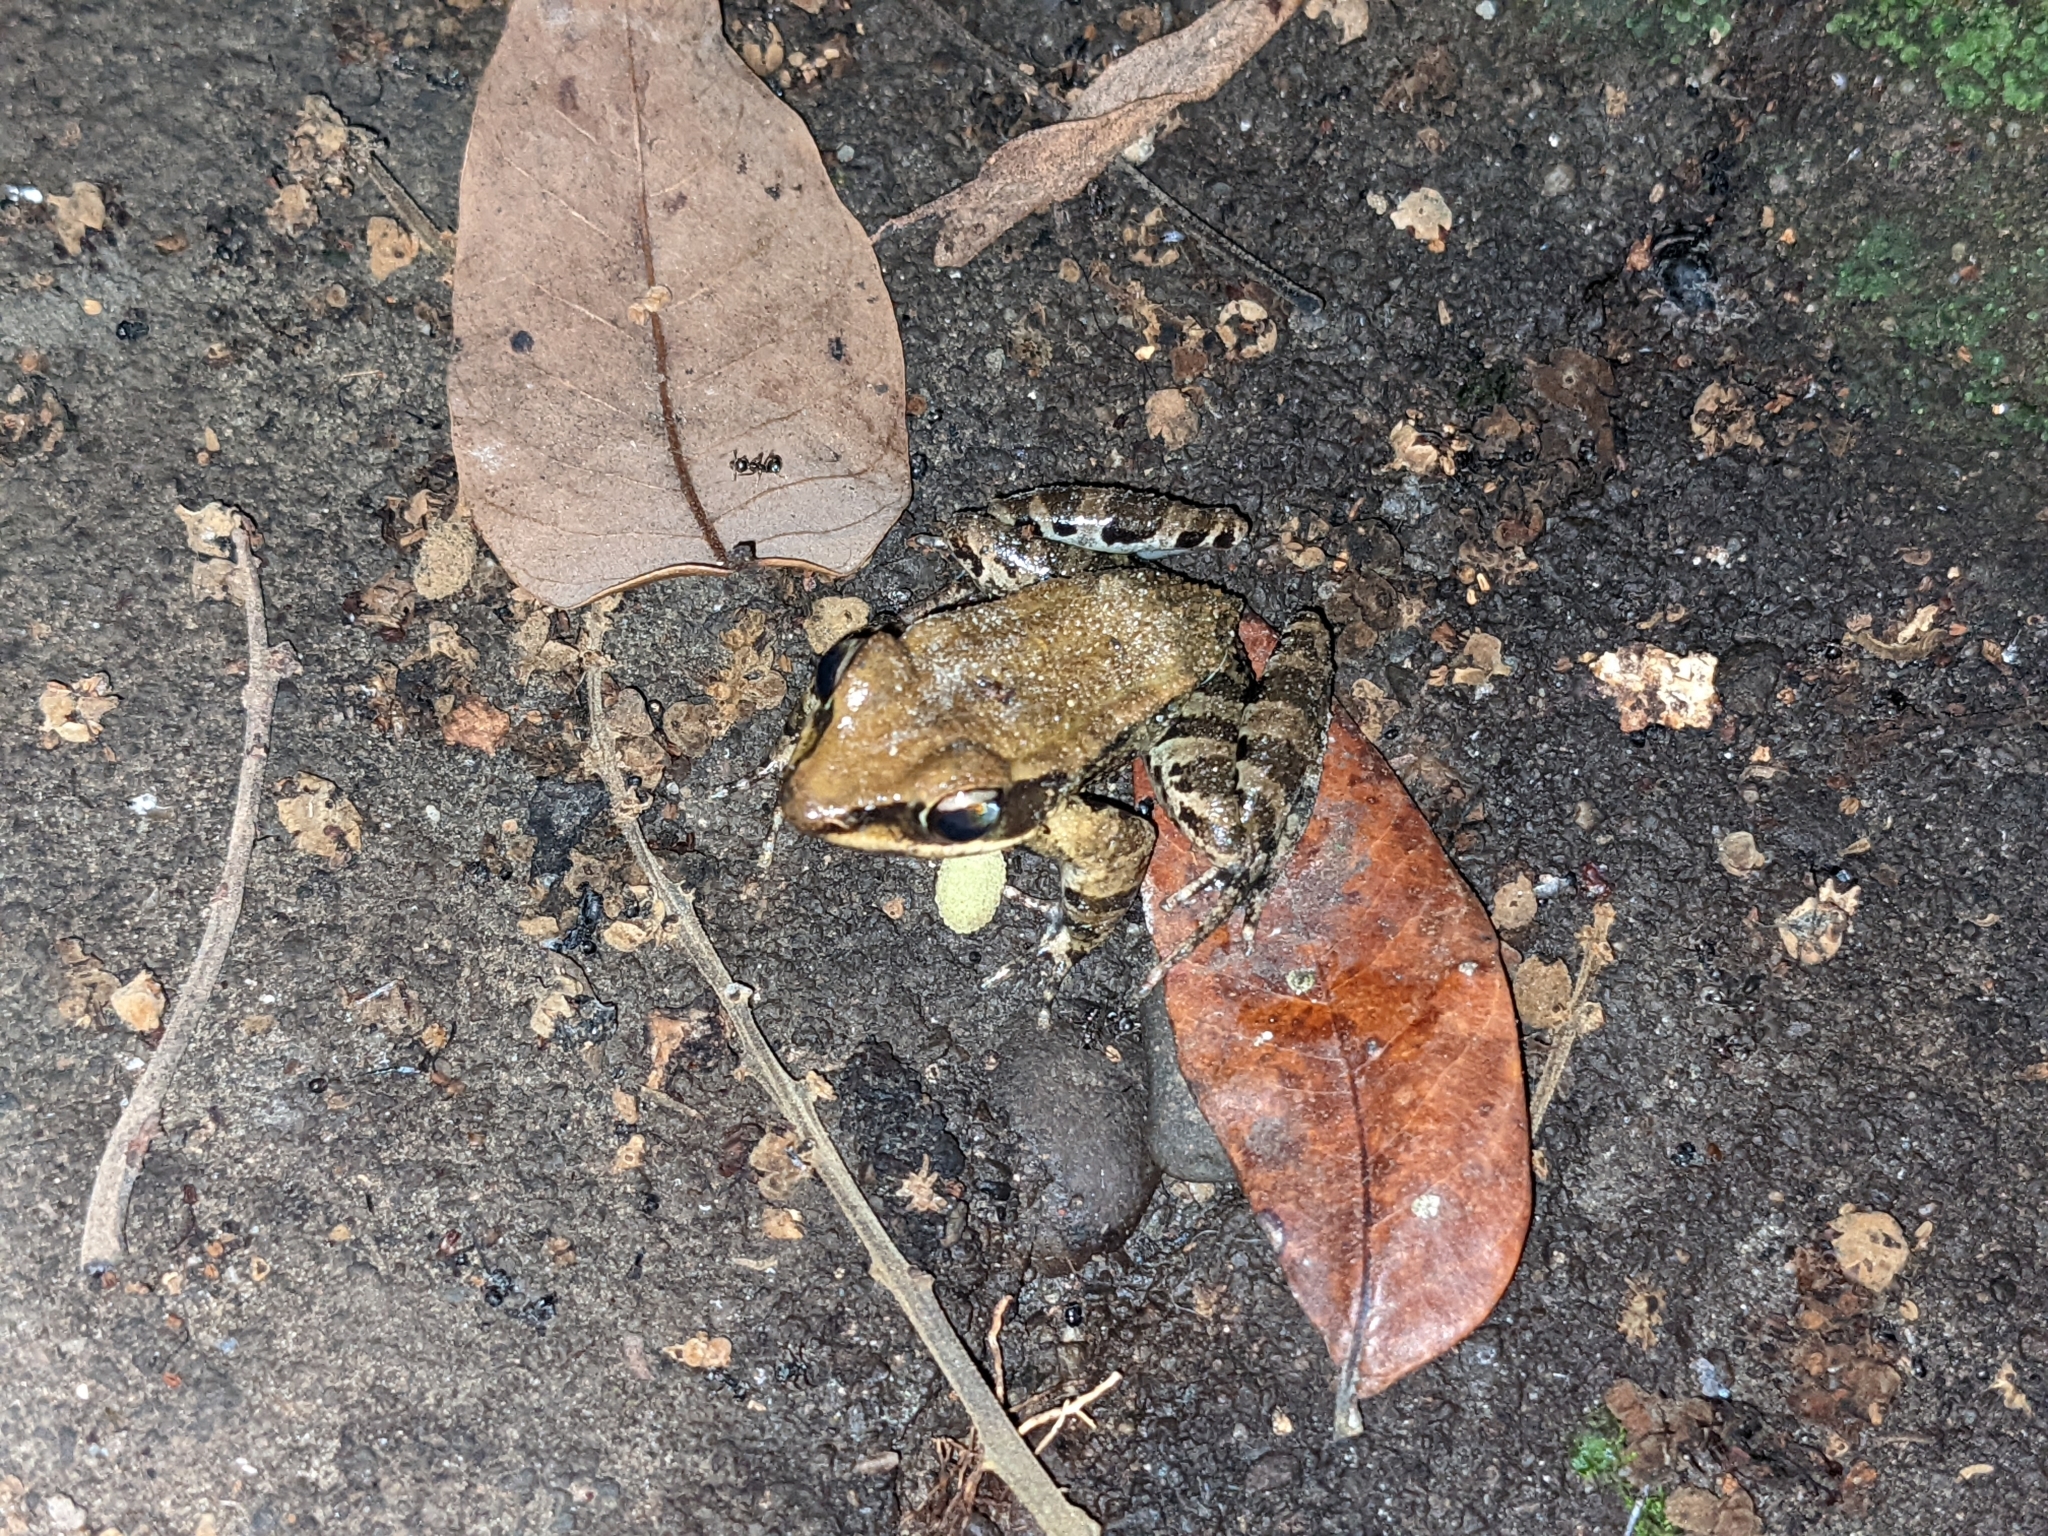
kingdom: Animalia
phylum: Chordata
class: Amphibia
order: Anura
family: Ranidae
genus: Hylarana
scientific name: Hylarana latouchii
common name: Broad-folded frog
